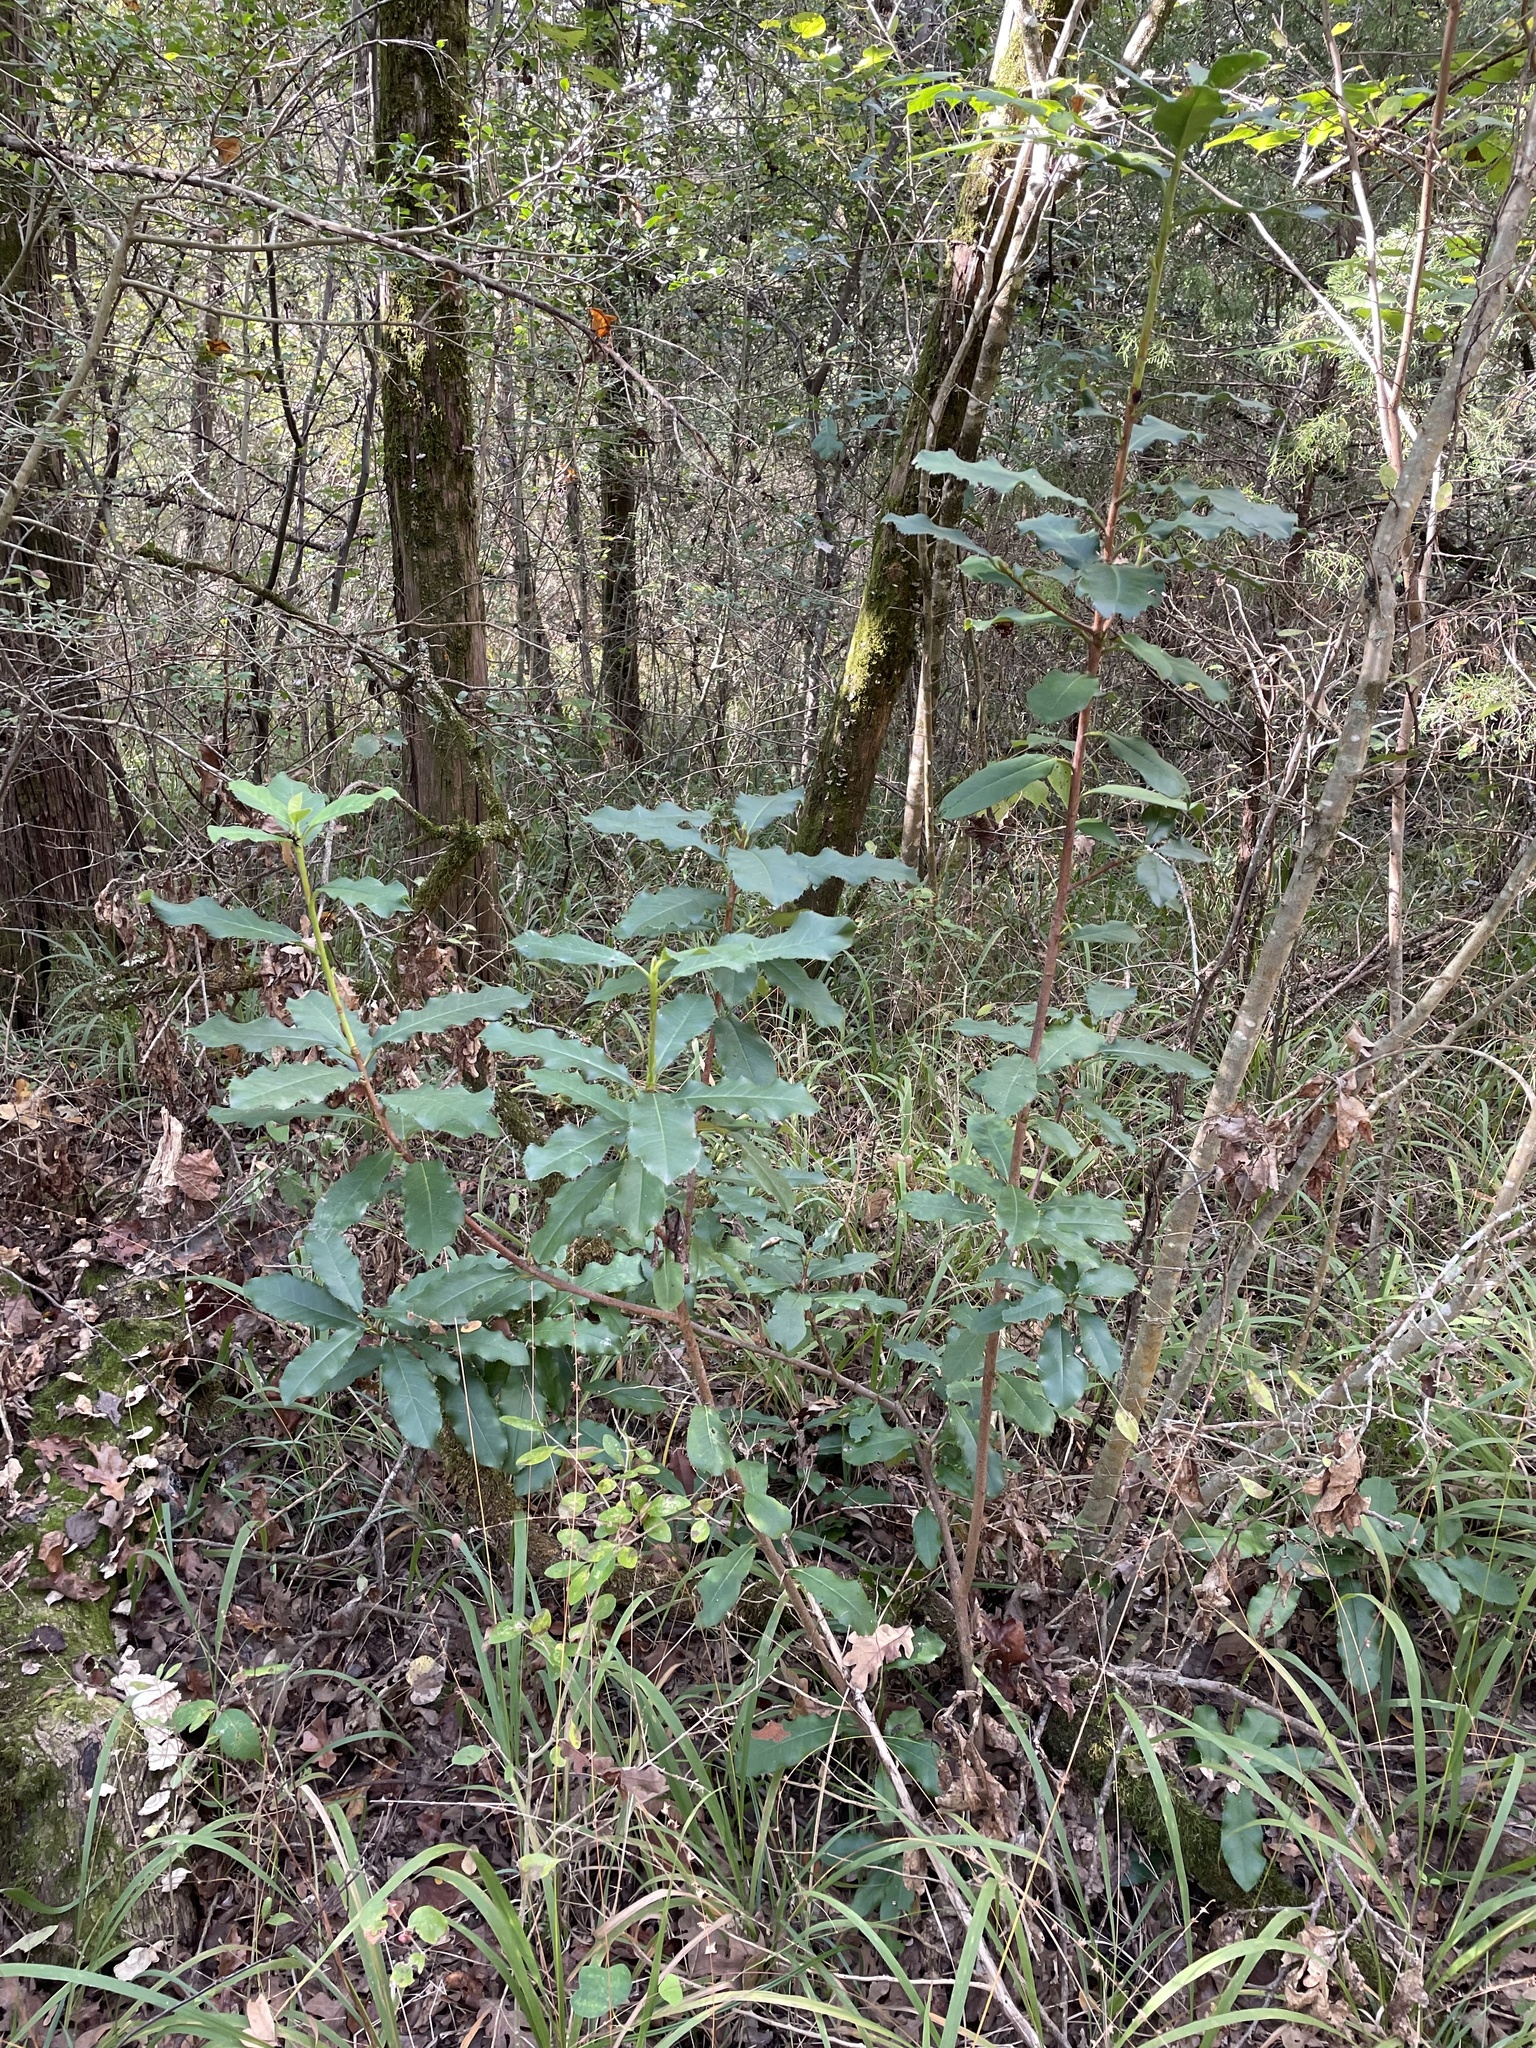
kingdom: Plantae
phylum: Tracheophyta
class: Magnoliopsida
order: Rosales
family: Rosaceae
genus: Photinia
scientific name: Photinia serratifolia
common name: Taiwanese photinia
